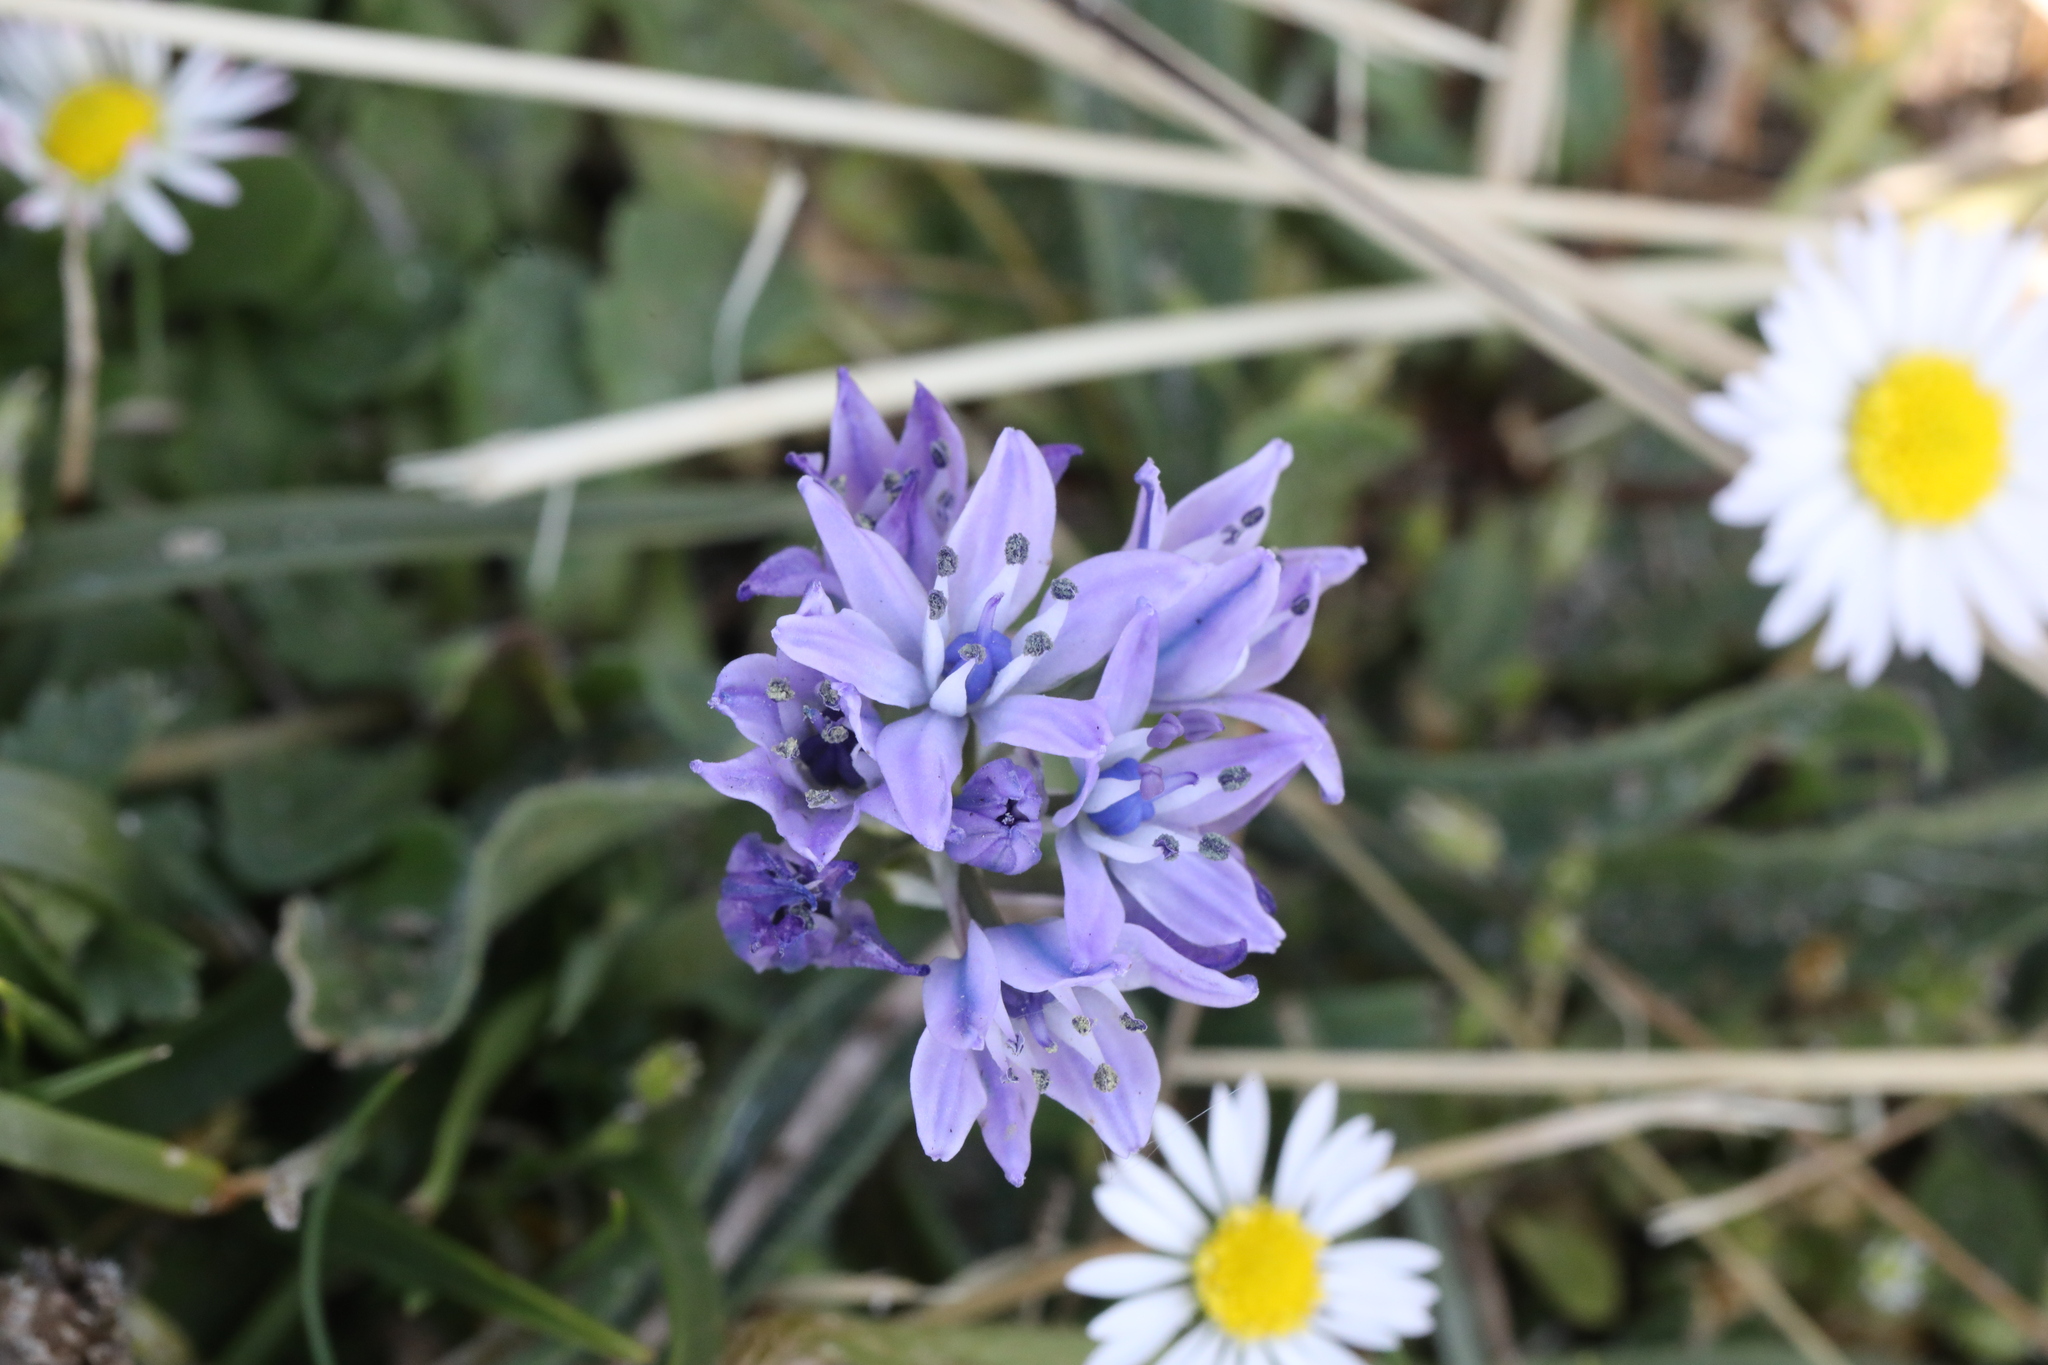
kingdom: Plantae
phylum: Tracheophyta
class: Liliopsida
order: Asparagales
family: Asparagaceae
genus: Scilla
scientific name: Scilla verna
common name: Spring squill
